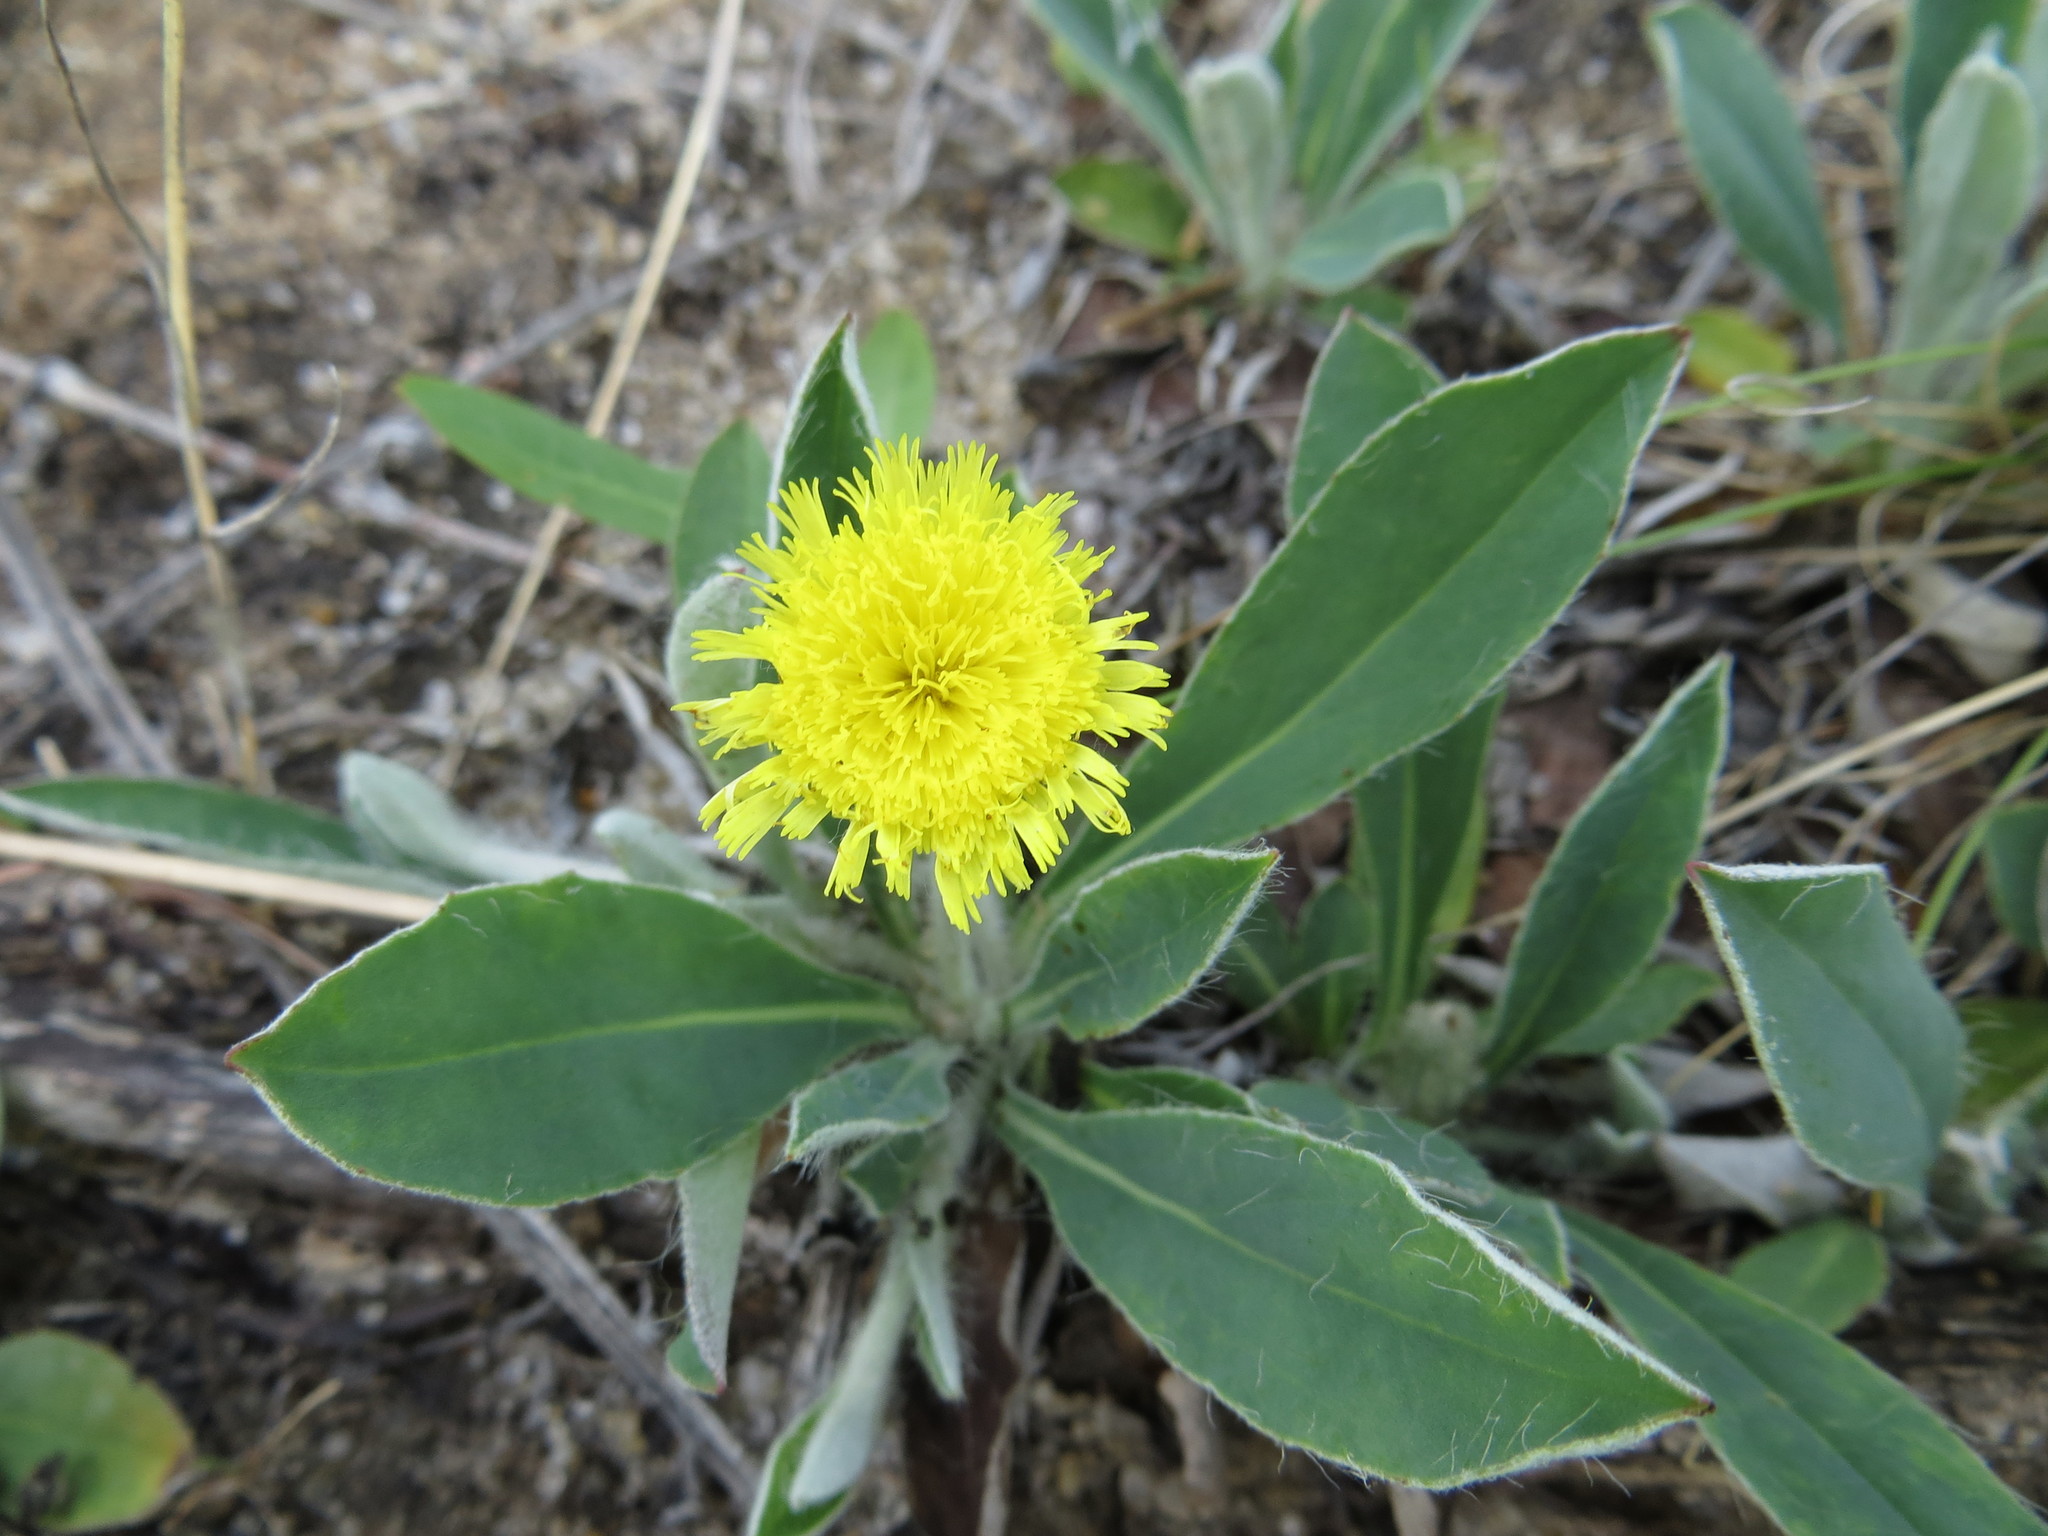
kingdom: Plantae
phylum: Tracheophyta
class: Magnoliopsida
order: Asterales
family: Asteraceae
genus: Pilosella
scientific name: Pilosella officinarum
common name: Mouse-ear hawkweed
